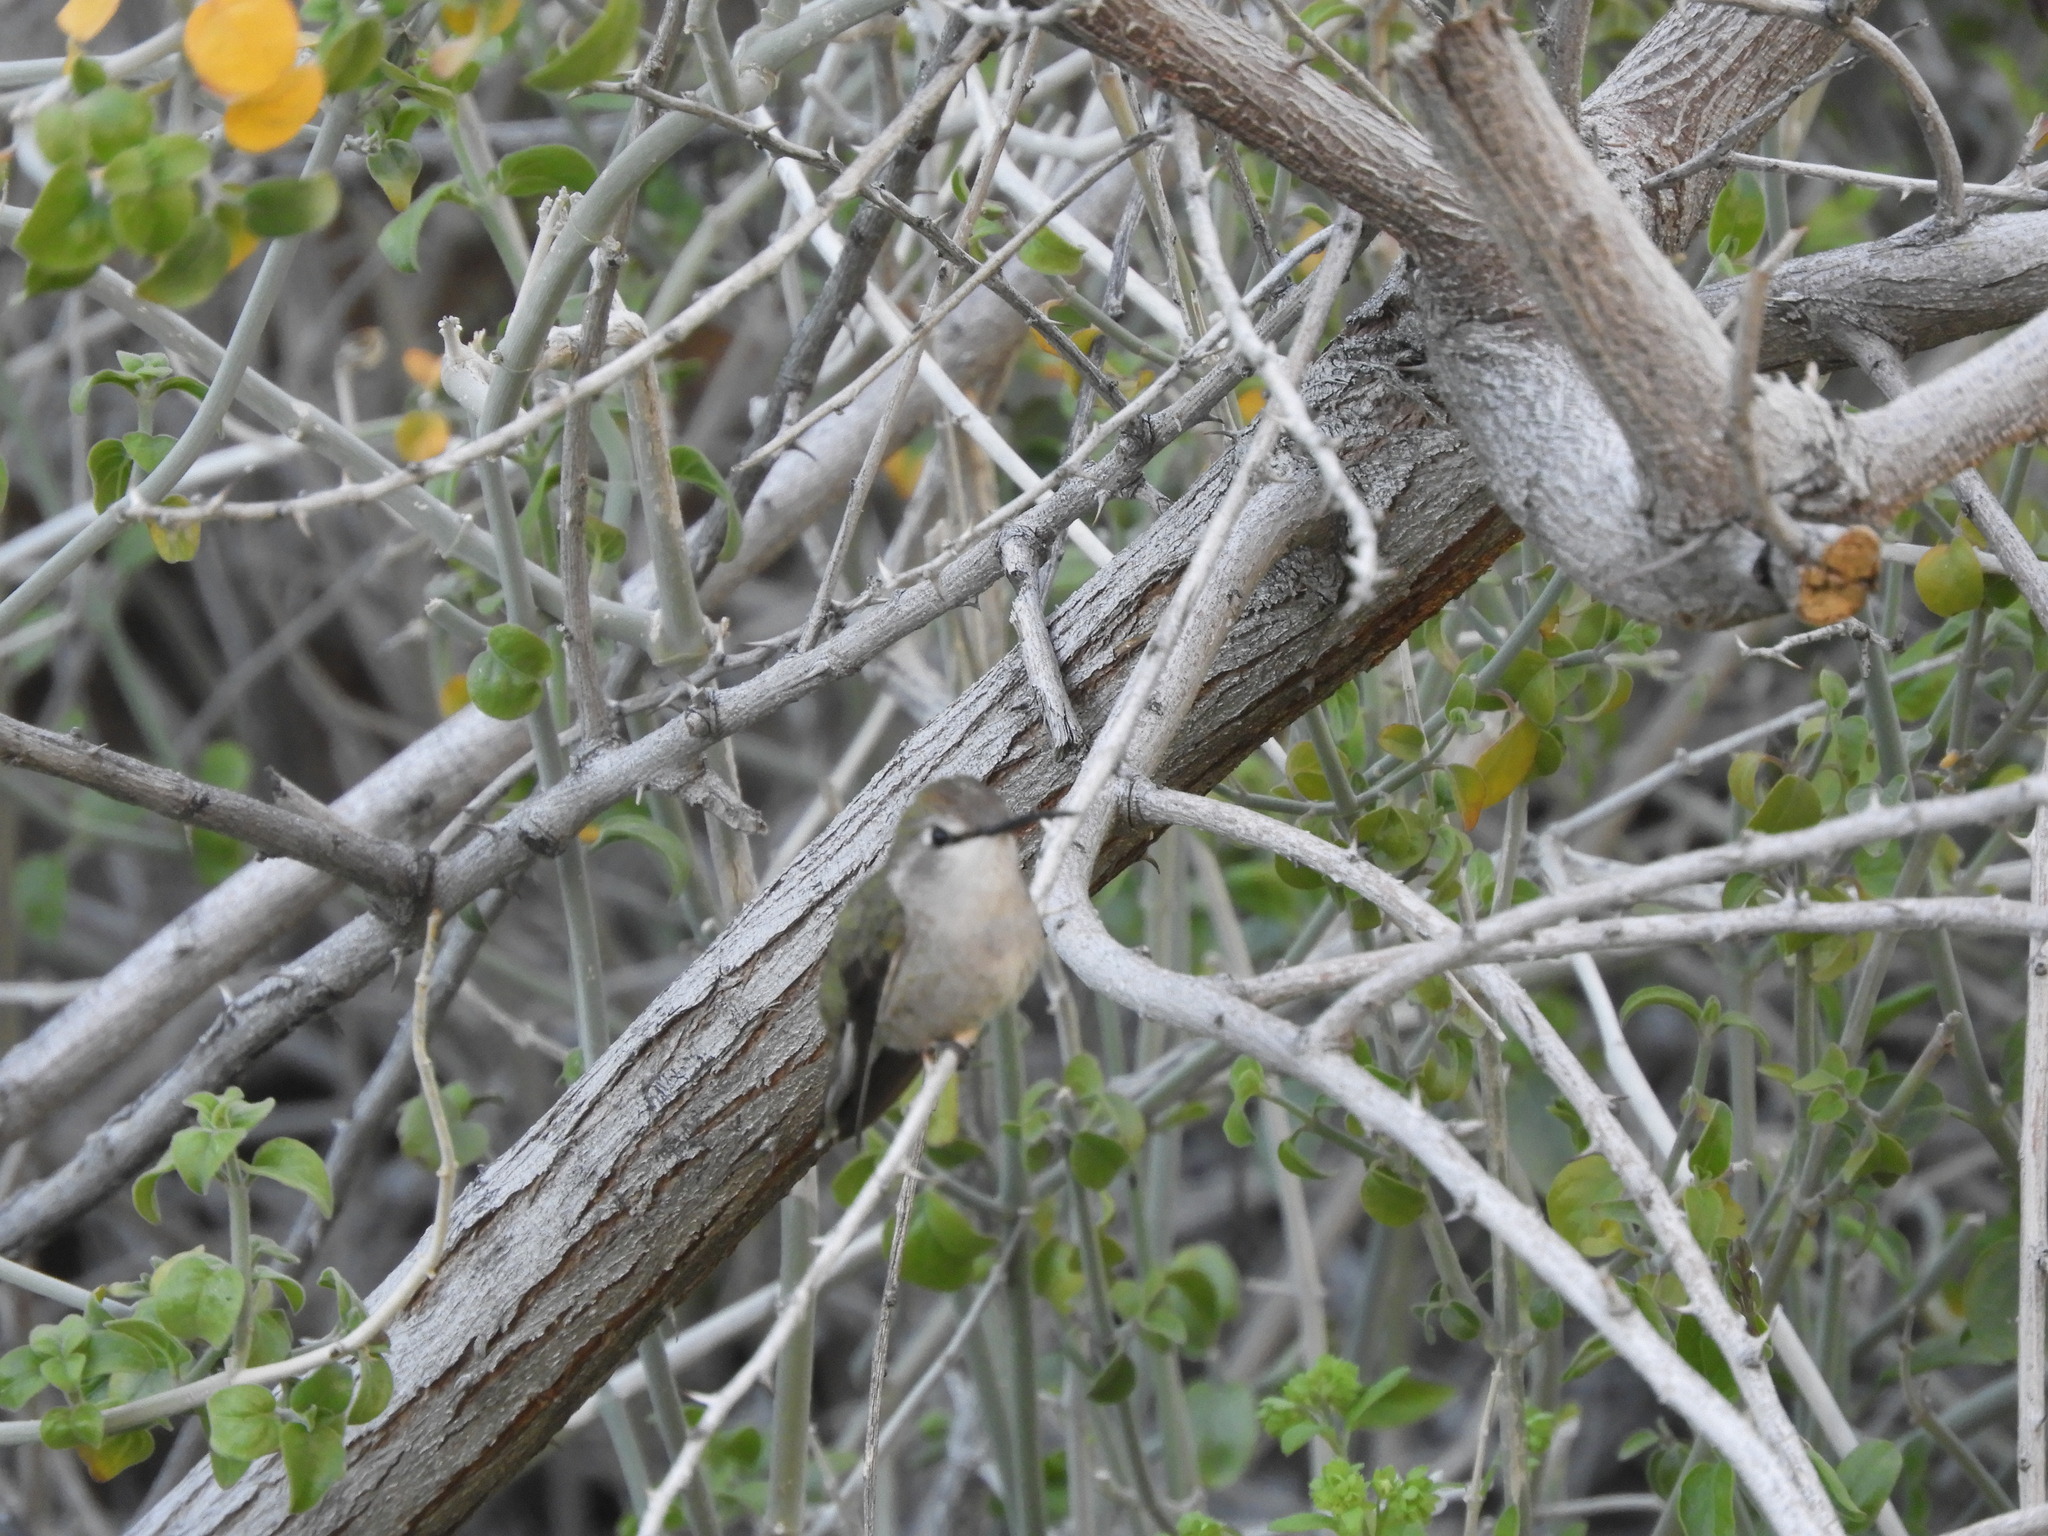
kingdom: Animalia
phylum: Chordata
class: Aves
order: Apodiformes
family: Trochilidae
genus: Calypte
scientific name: Calypte costae
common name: Costa's hummingbird
